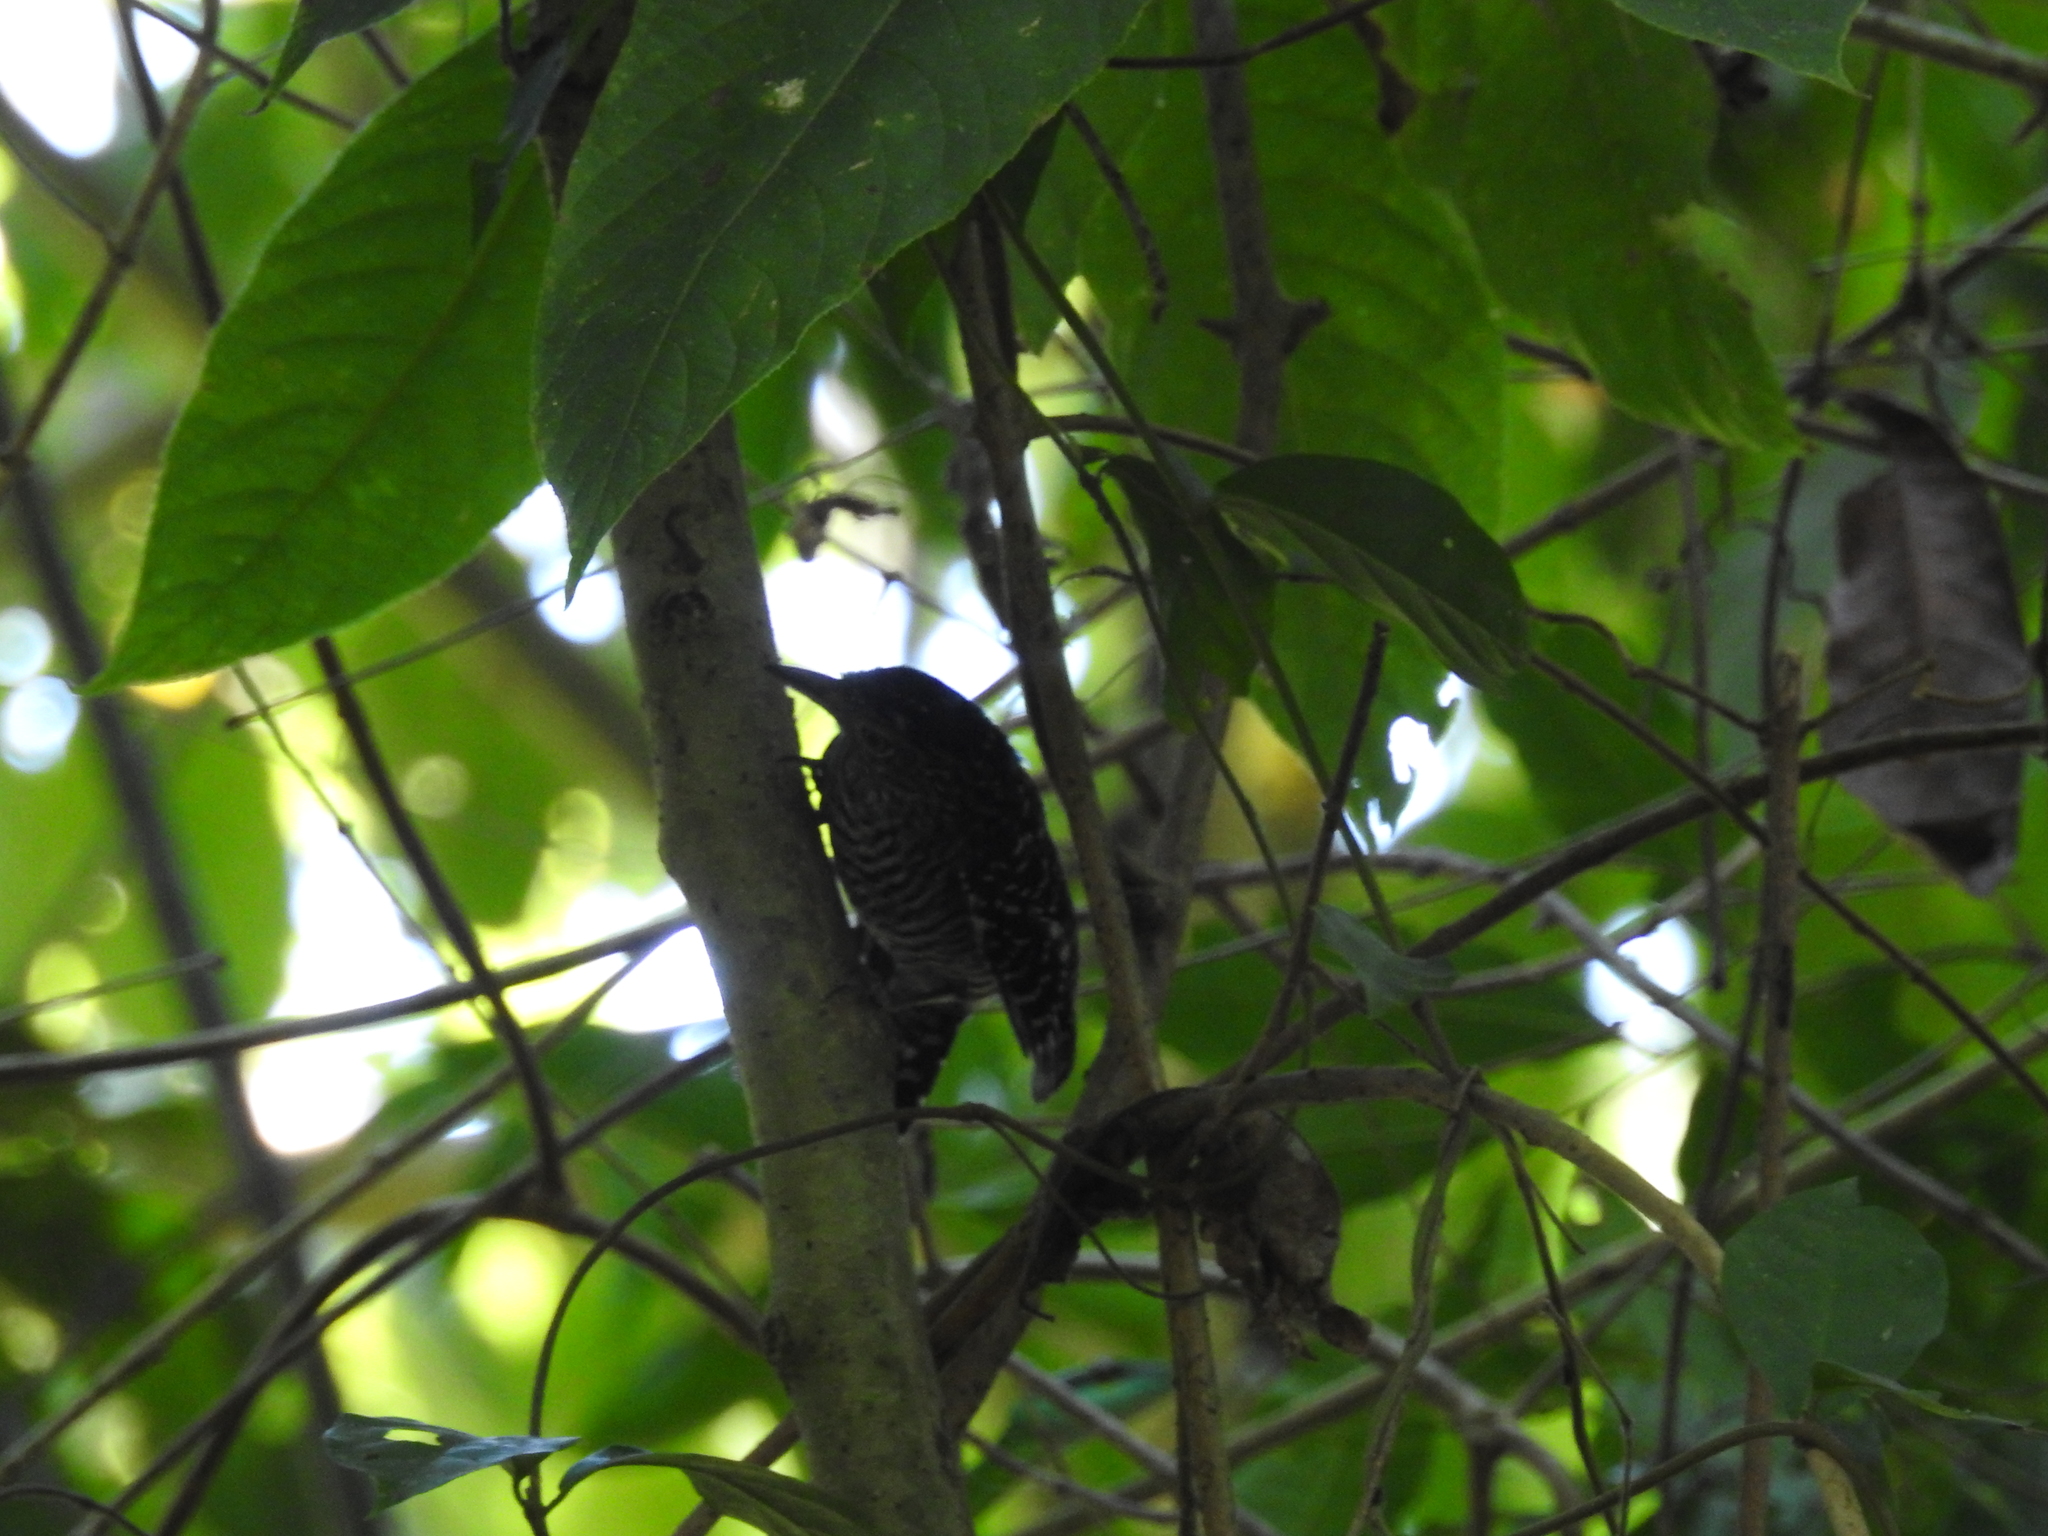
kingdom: Animalia
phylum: Chordata
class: Aves
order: Passeriformes
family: Thamnophilidae
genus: Thamnophilus
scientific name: Thamnophilus doliatus
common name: Barred antshrike
